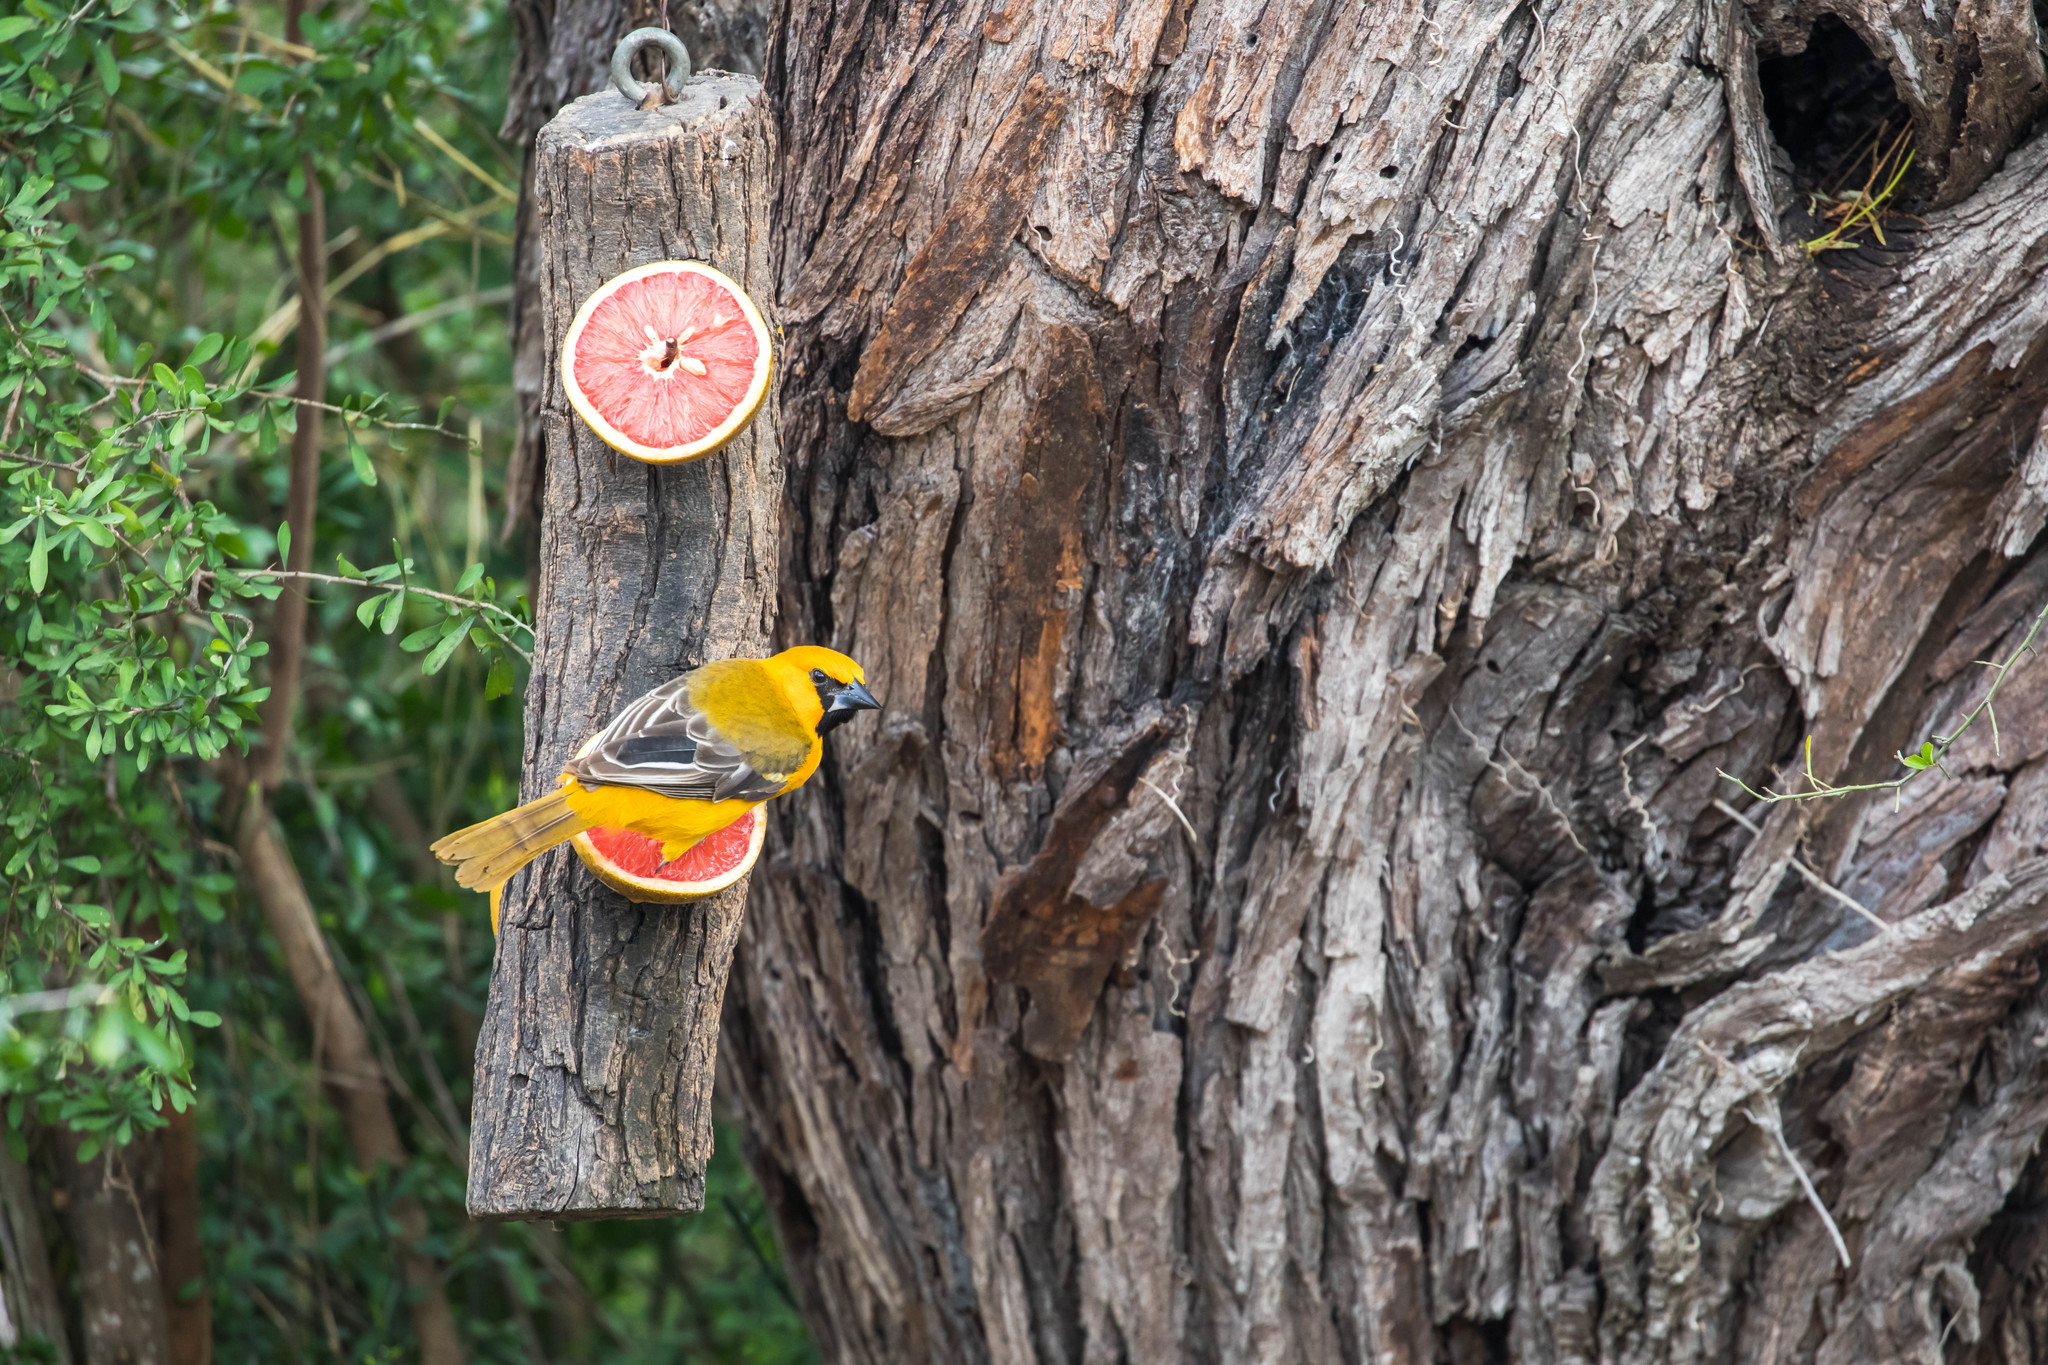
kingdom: Animalia
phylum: Chordata
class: Aves
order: Passeriformes
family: Icteridae
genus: Icterus
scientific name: Icterus gularis
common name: Altamira oriole
